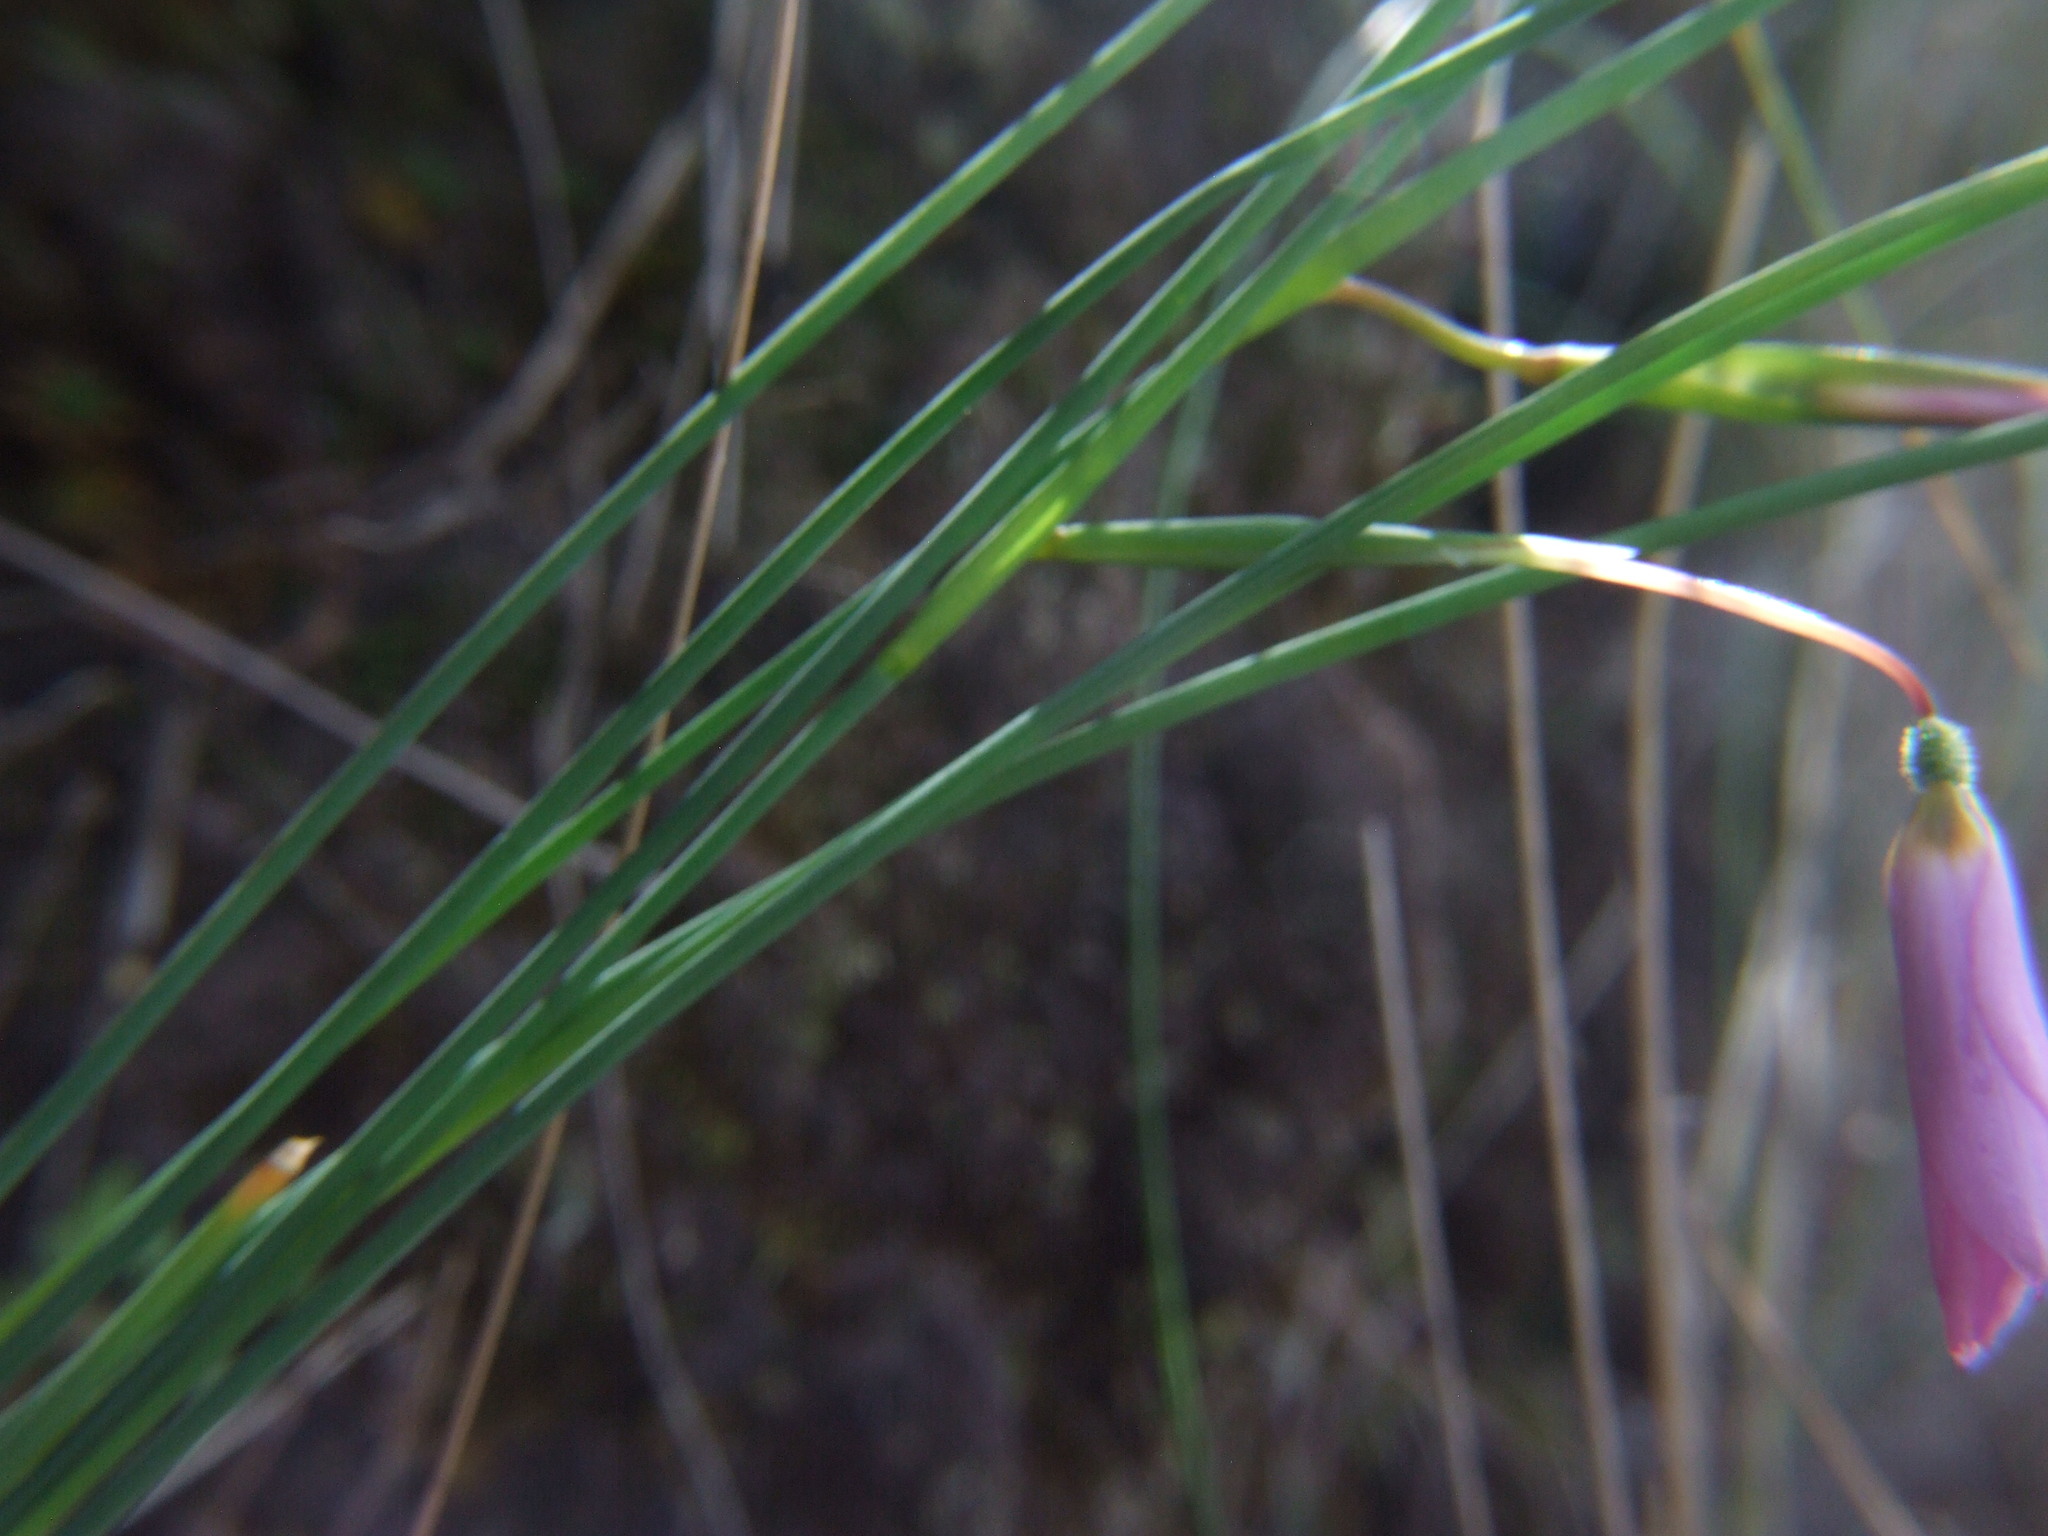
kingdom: Plantae
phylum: Tracheophyta
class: Liliopsida
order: Asparagales
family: Iridaceae
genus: Olsynium
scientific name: Olsynium junceum
